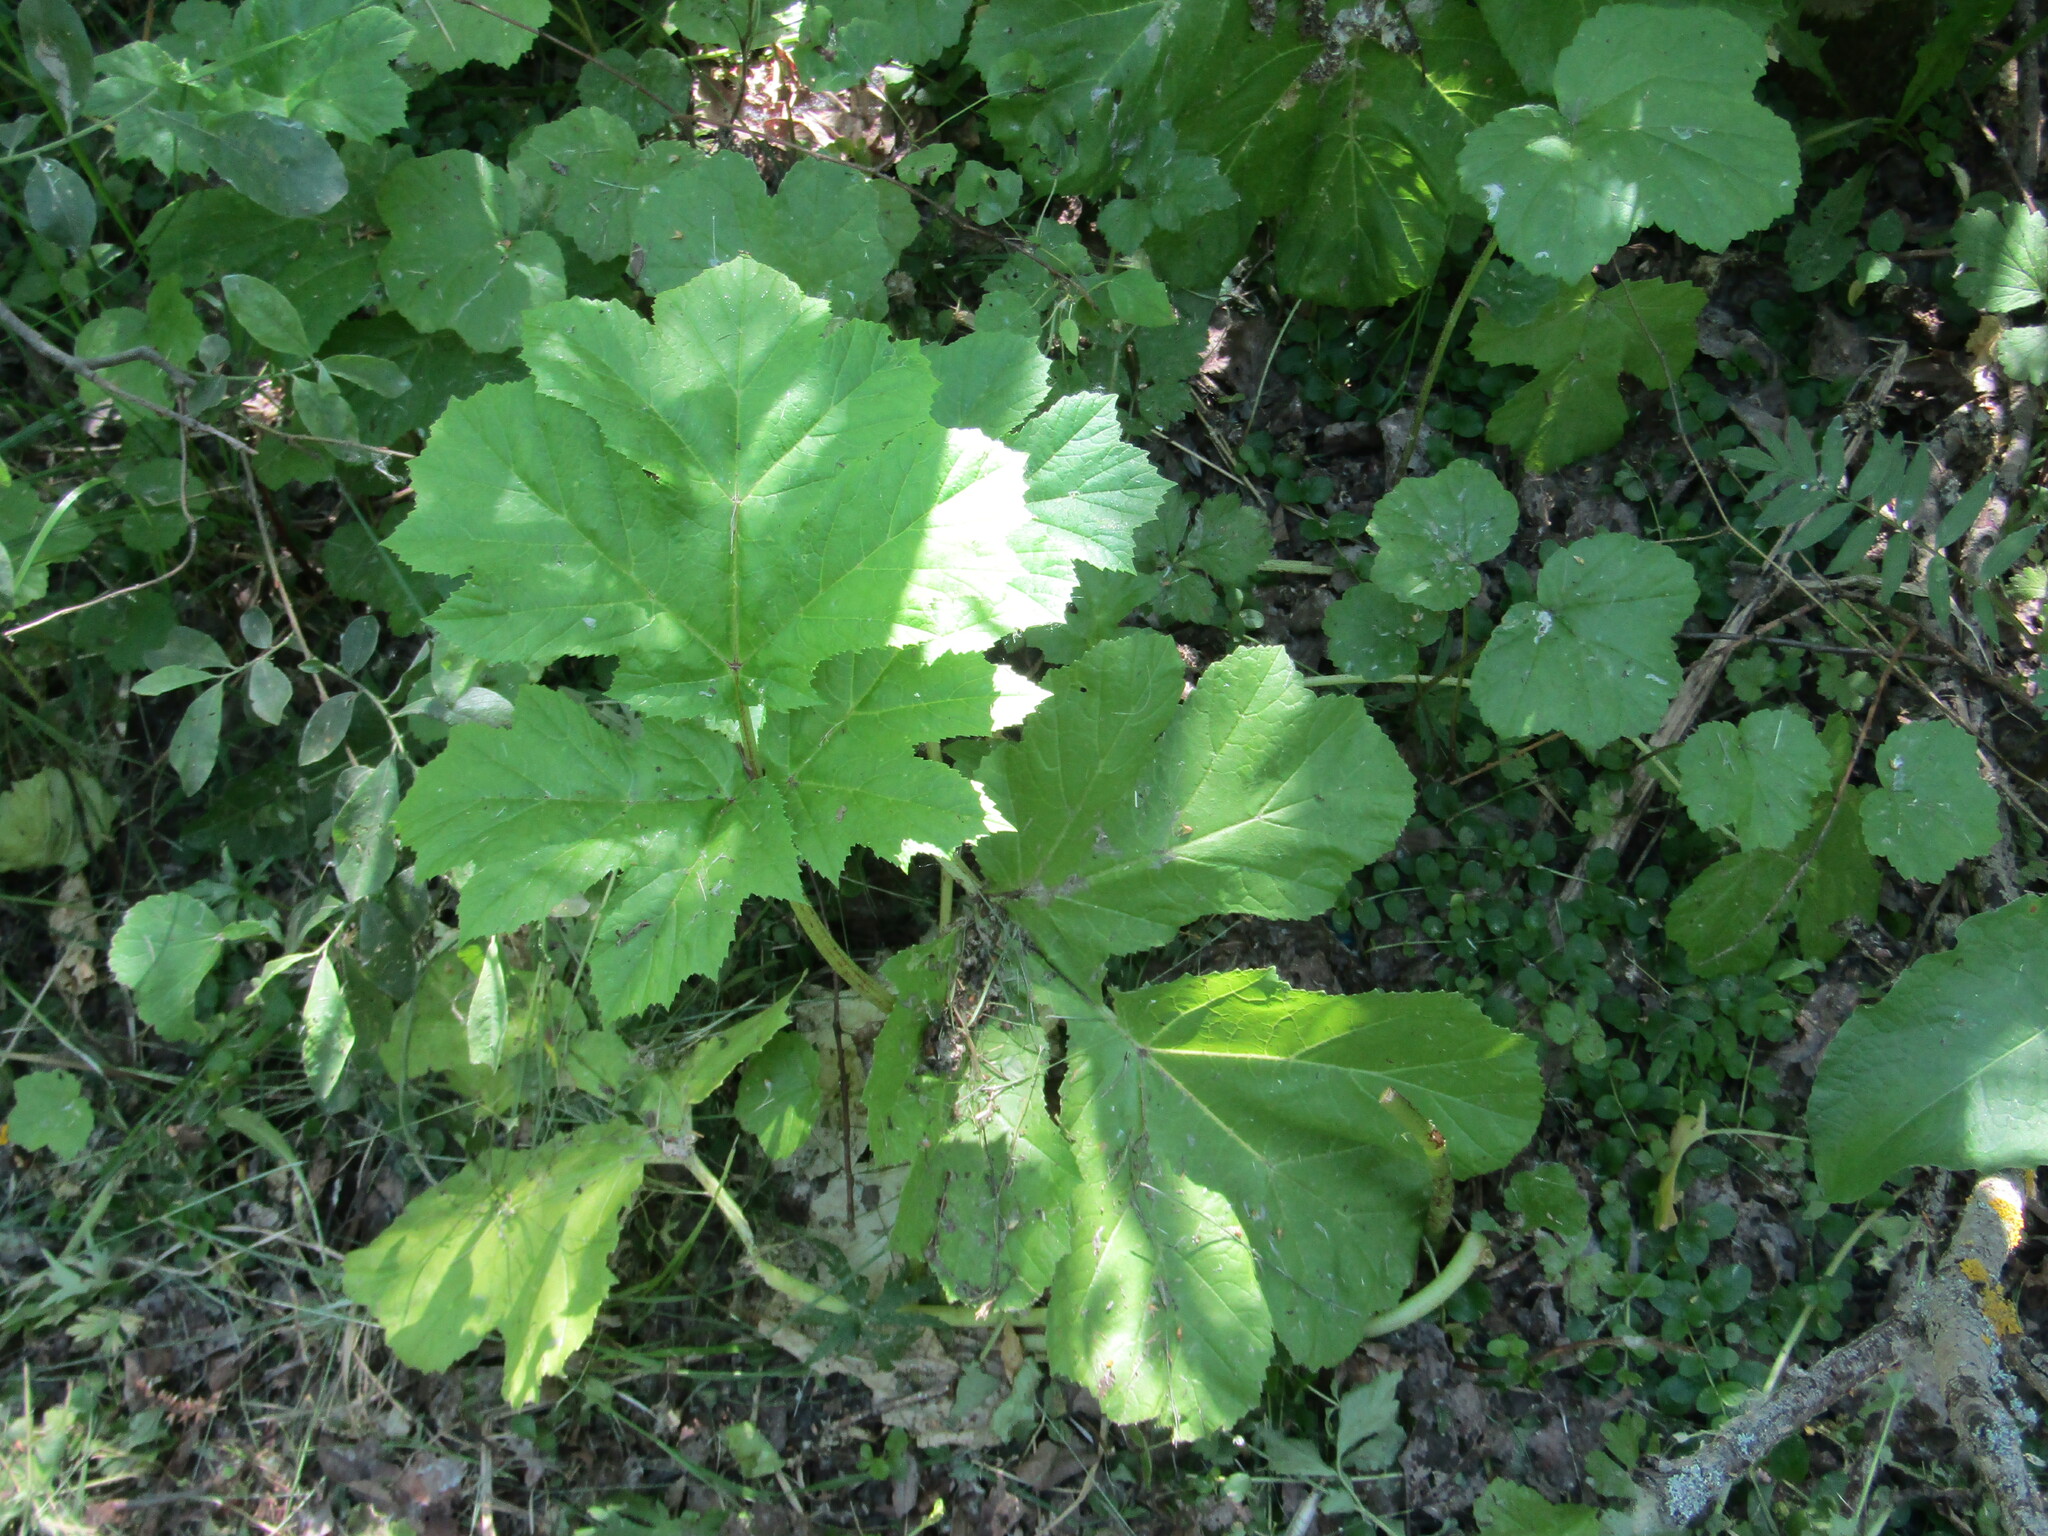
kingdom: Plantae
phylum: Tracheophyta
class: Magnoliopsida
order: Apiales
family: Apiaceae
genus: Heracleum
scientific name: Heracleum sosnowskyi
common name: Sosnowsky's hogweed
